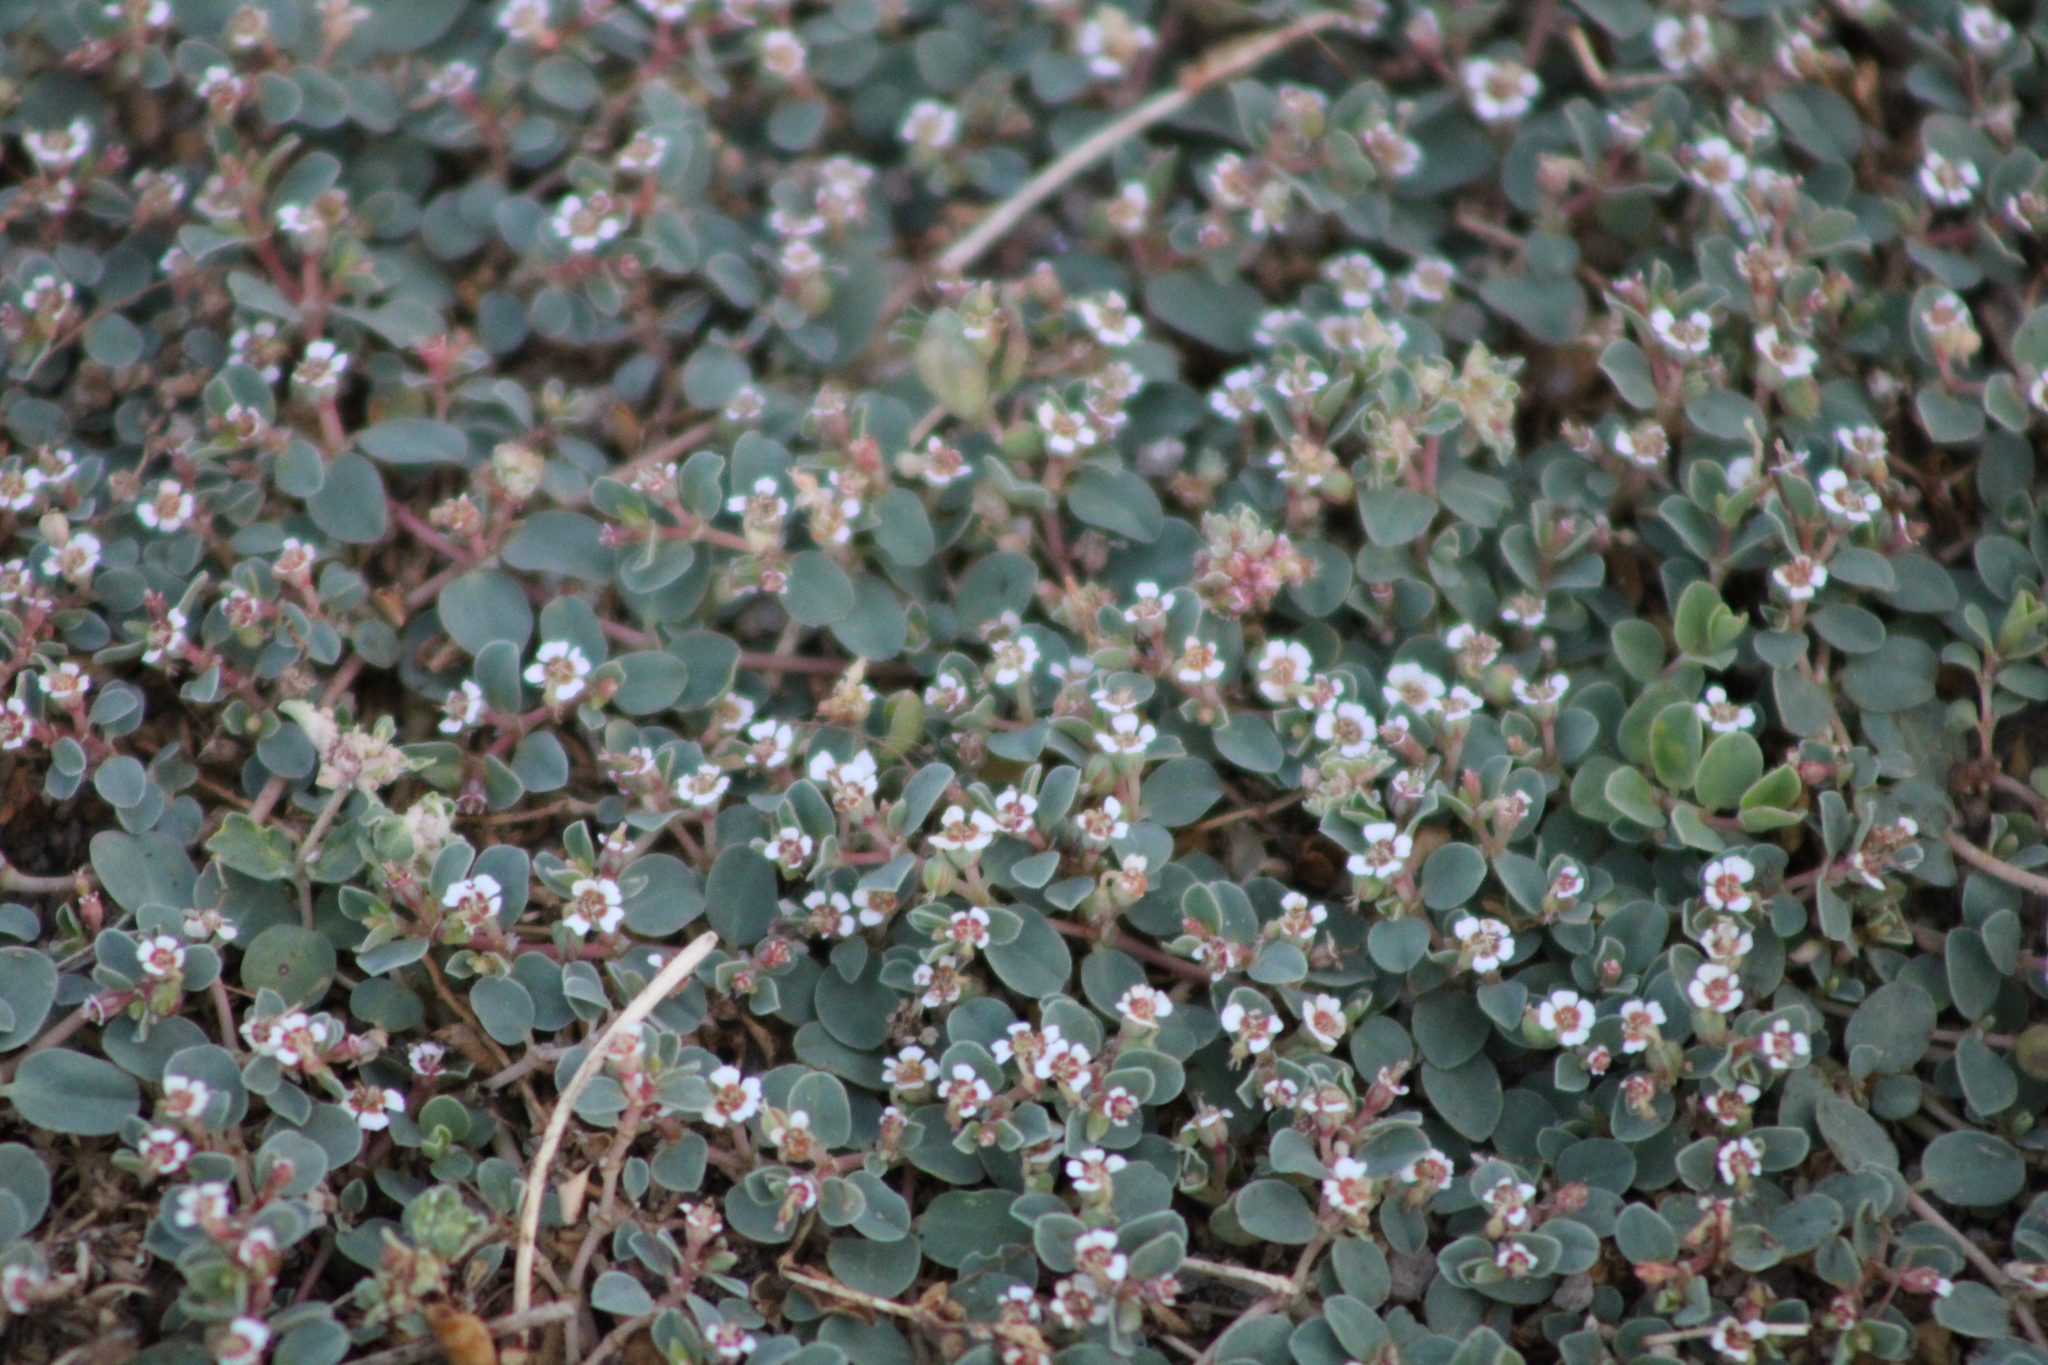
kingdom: Plantae
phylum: Tracheophyta
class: Magnoliopsida
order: Malpighiales
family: Euphorbiaceae
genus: Euphorbia
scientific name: Euphorbia albomarginata
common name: Whitemargin sandmat
